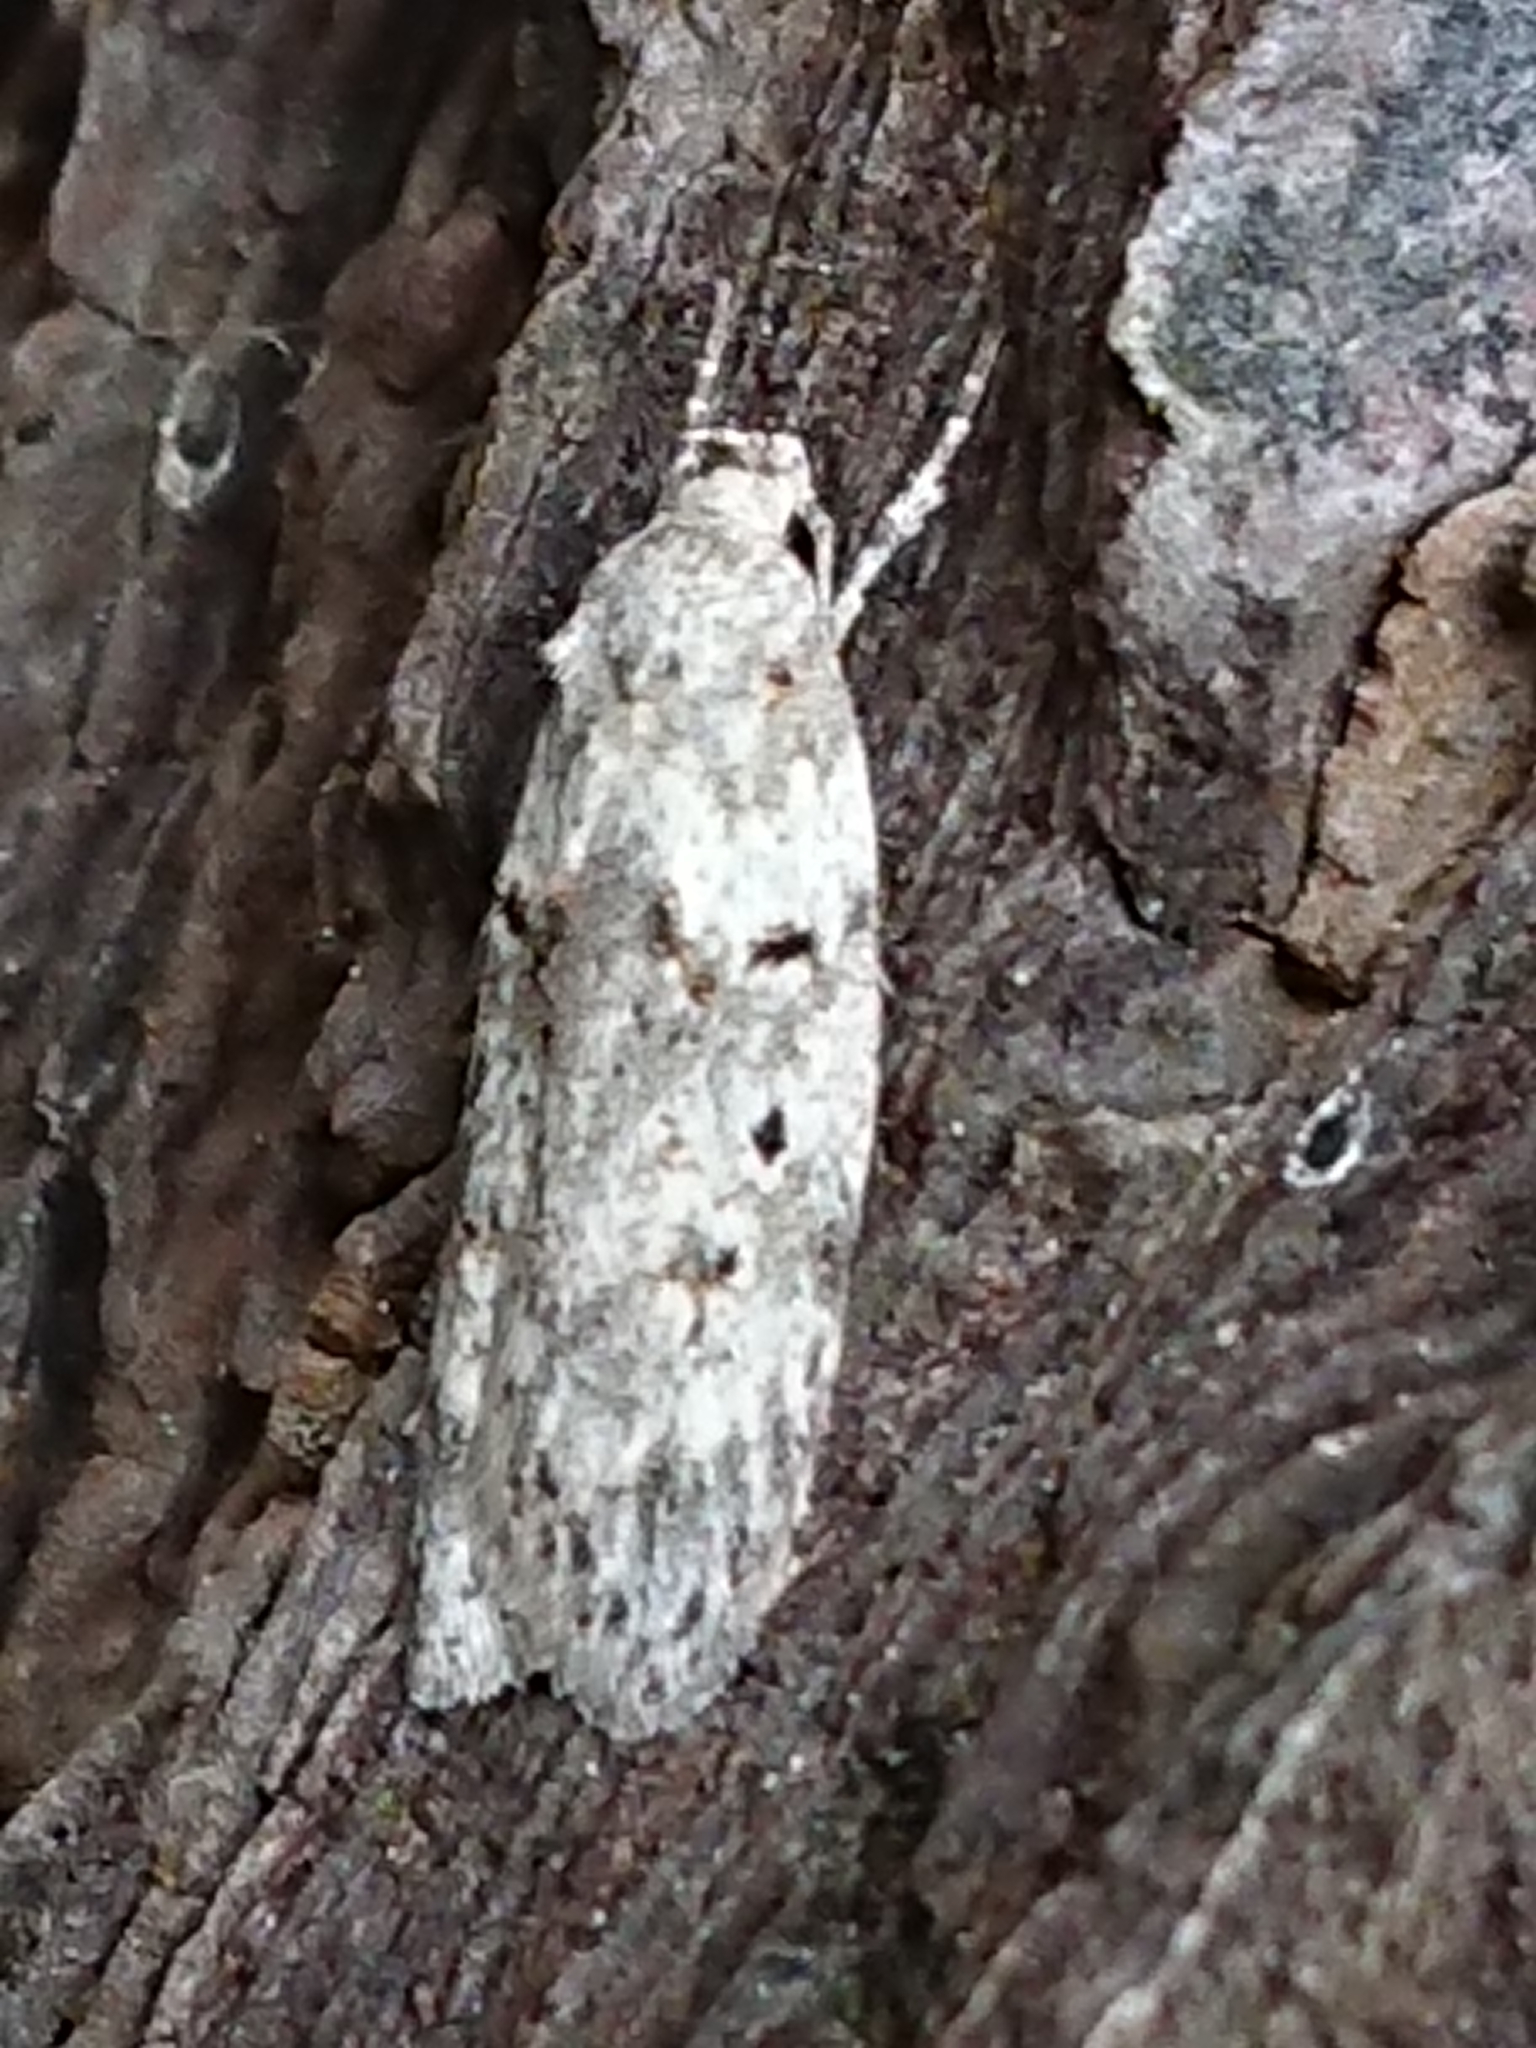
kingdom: Animalia
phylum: Arthropoda
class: Insecta
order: Lepidoptera
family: Oecophoridae
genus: Izatha
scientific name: Izatha convulsella
